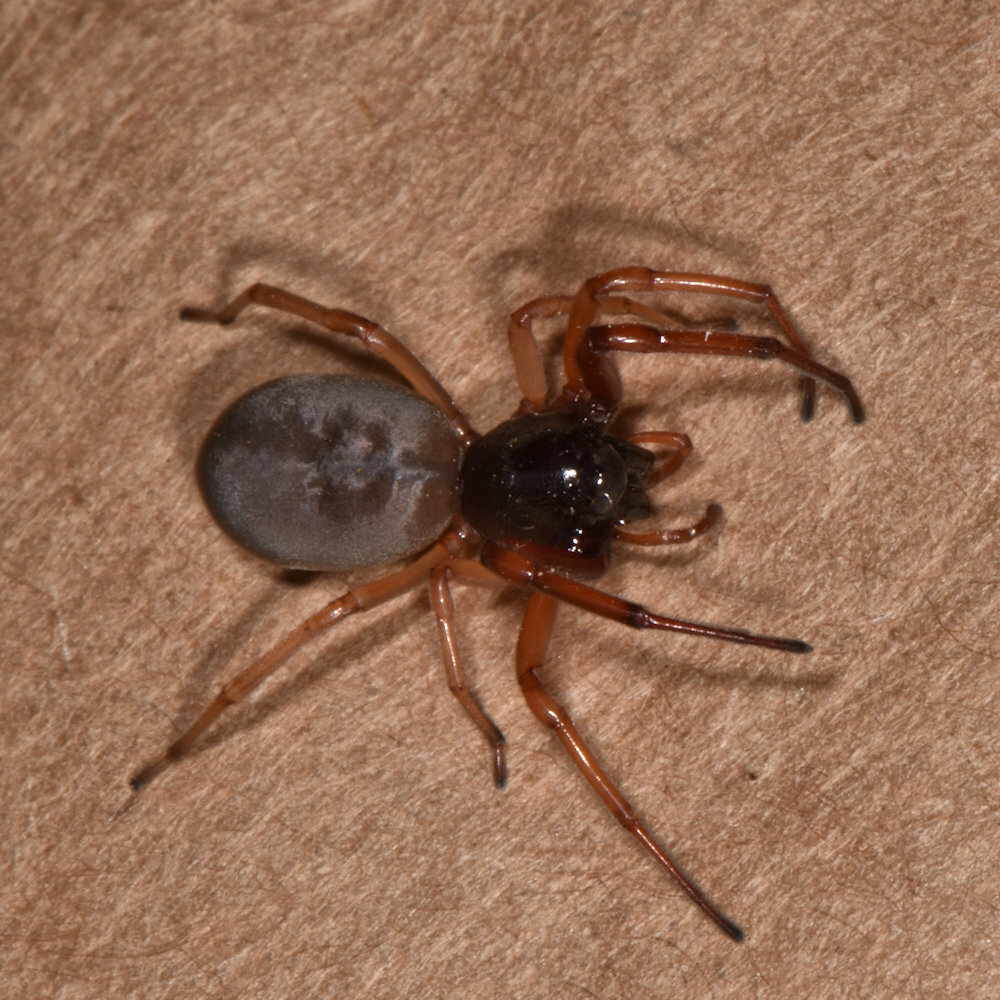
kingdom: Animalia
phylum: Arthropoda
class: Arachnida
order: Araneae
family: Trachelidae
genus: Trachelas
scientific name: Trachelas tranquillus
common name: Broad-faced sac spider
